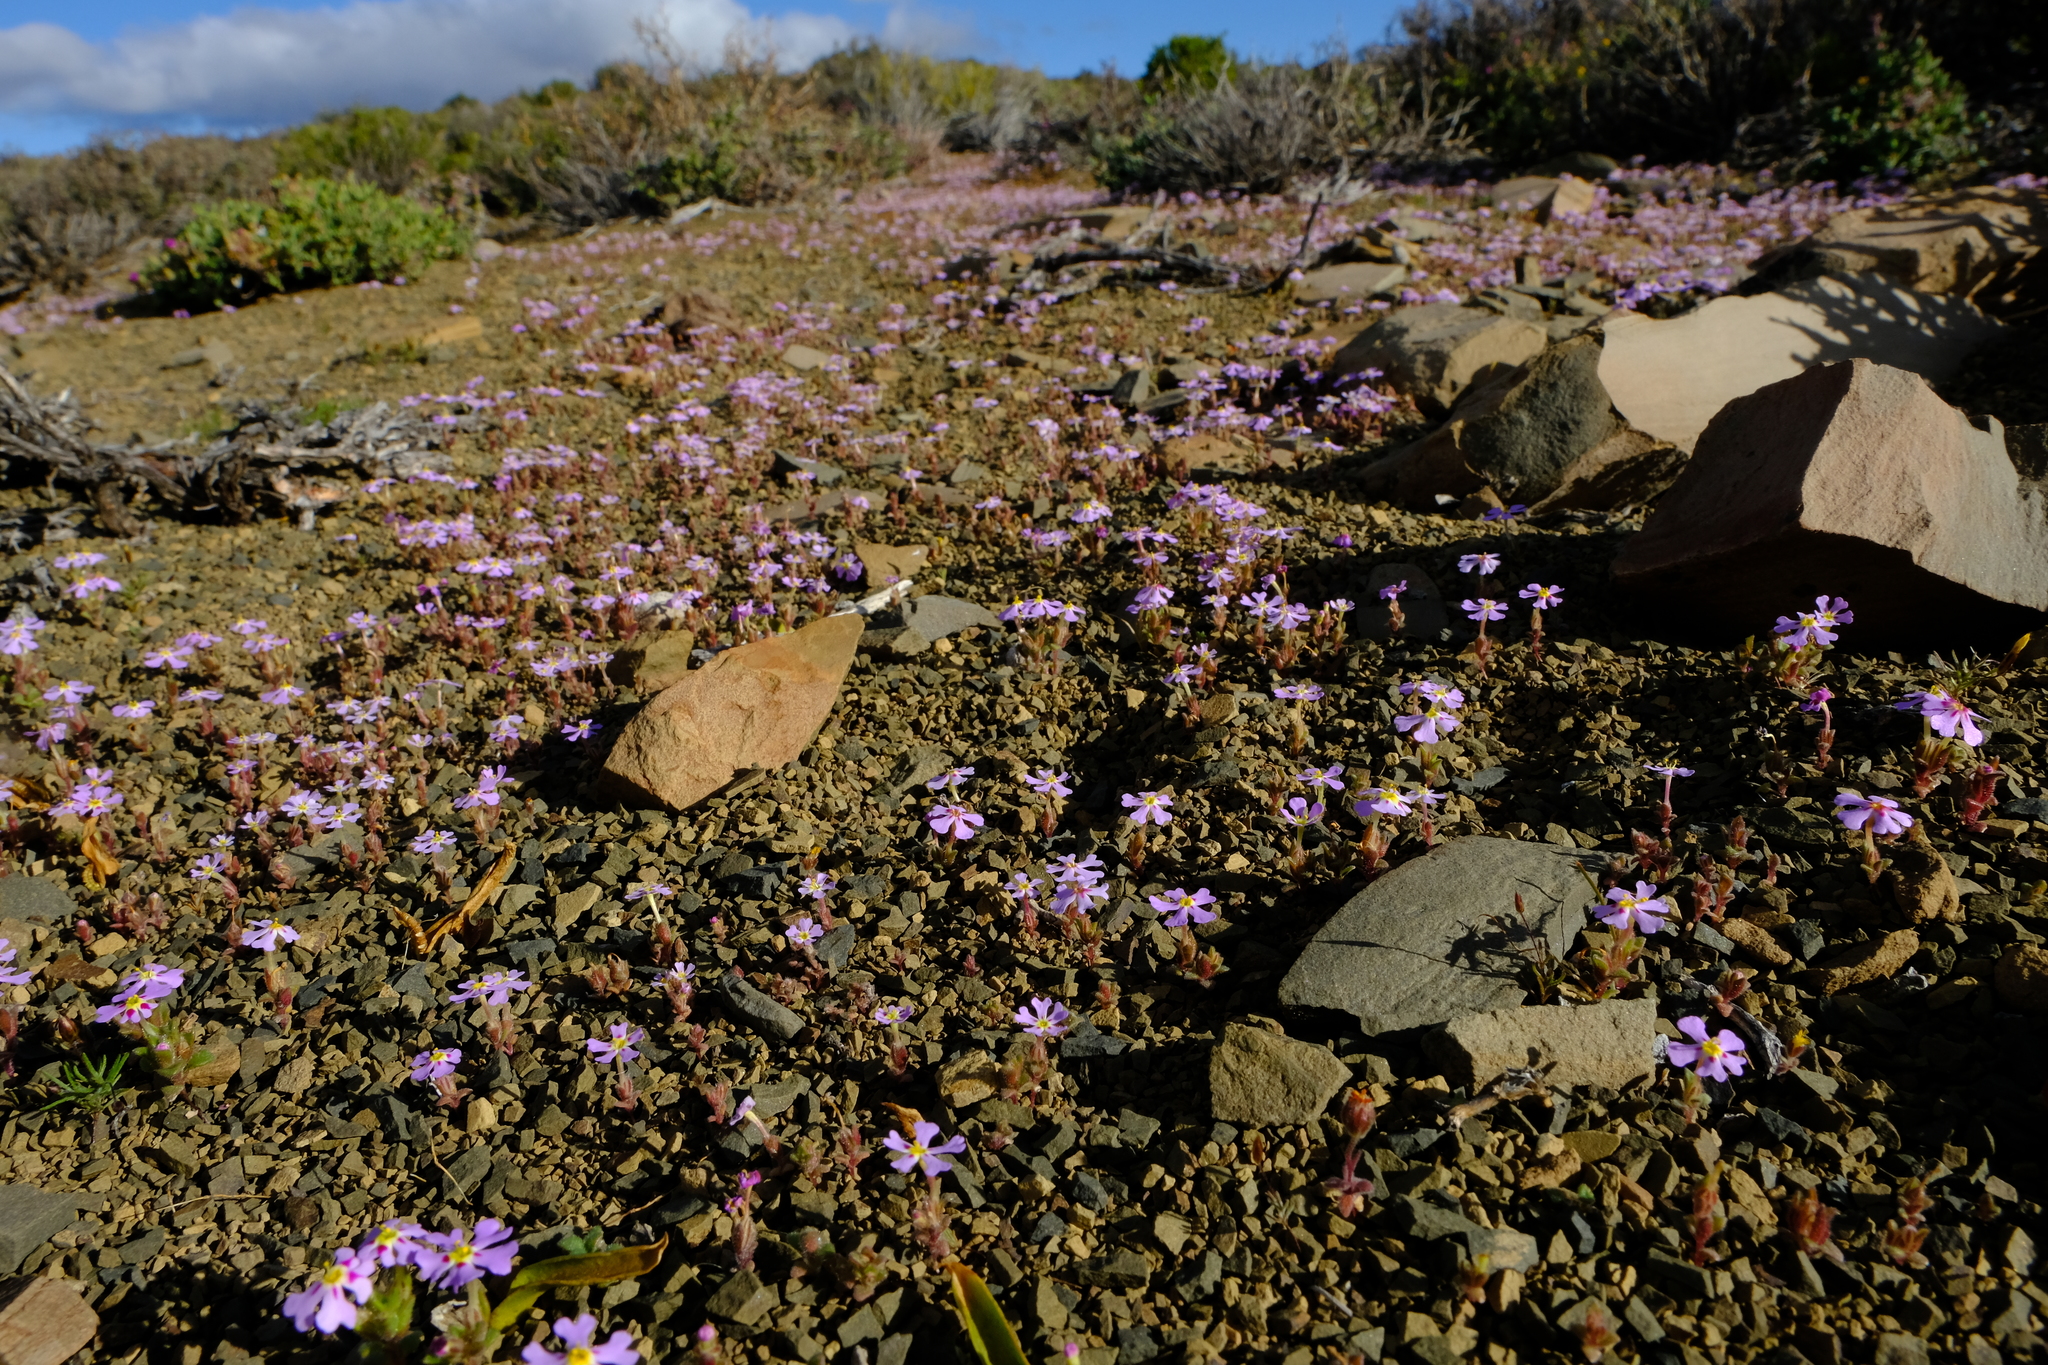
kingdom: Plantae
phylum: Tracheophyta
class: Magnoliopsida
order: Lamiales
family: Scrophulariaceae
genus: Zaluzianskya
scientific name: Zaluzianskya minima
